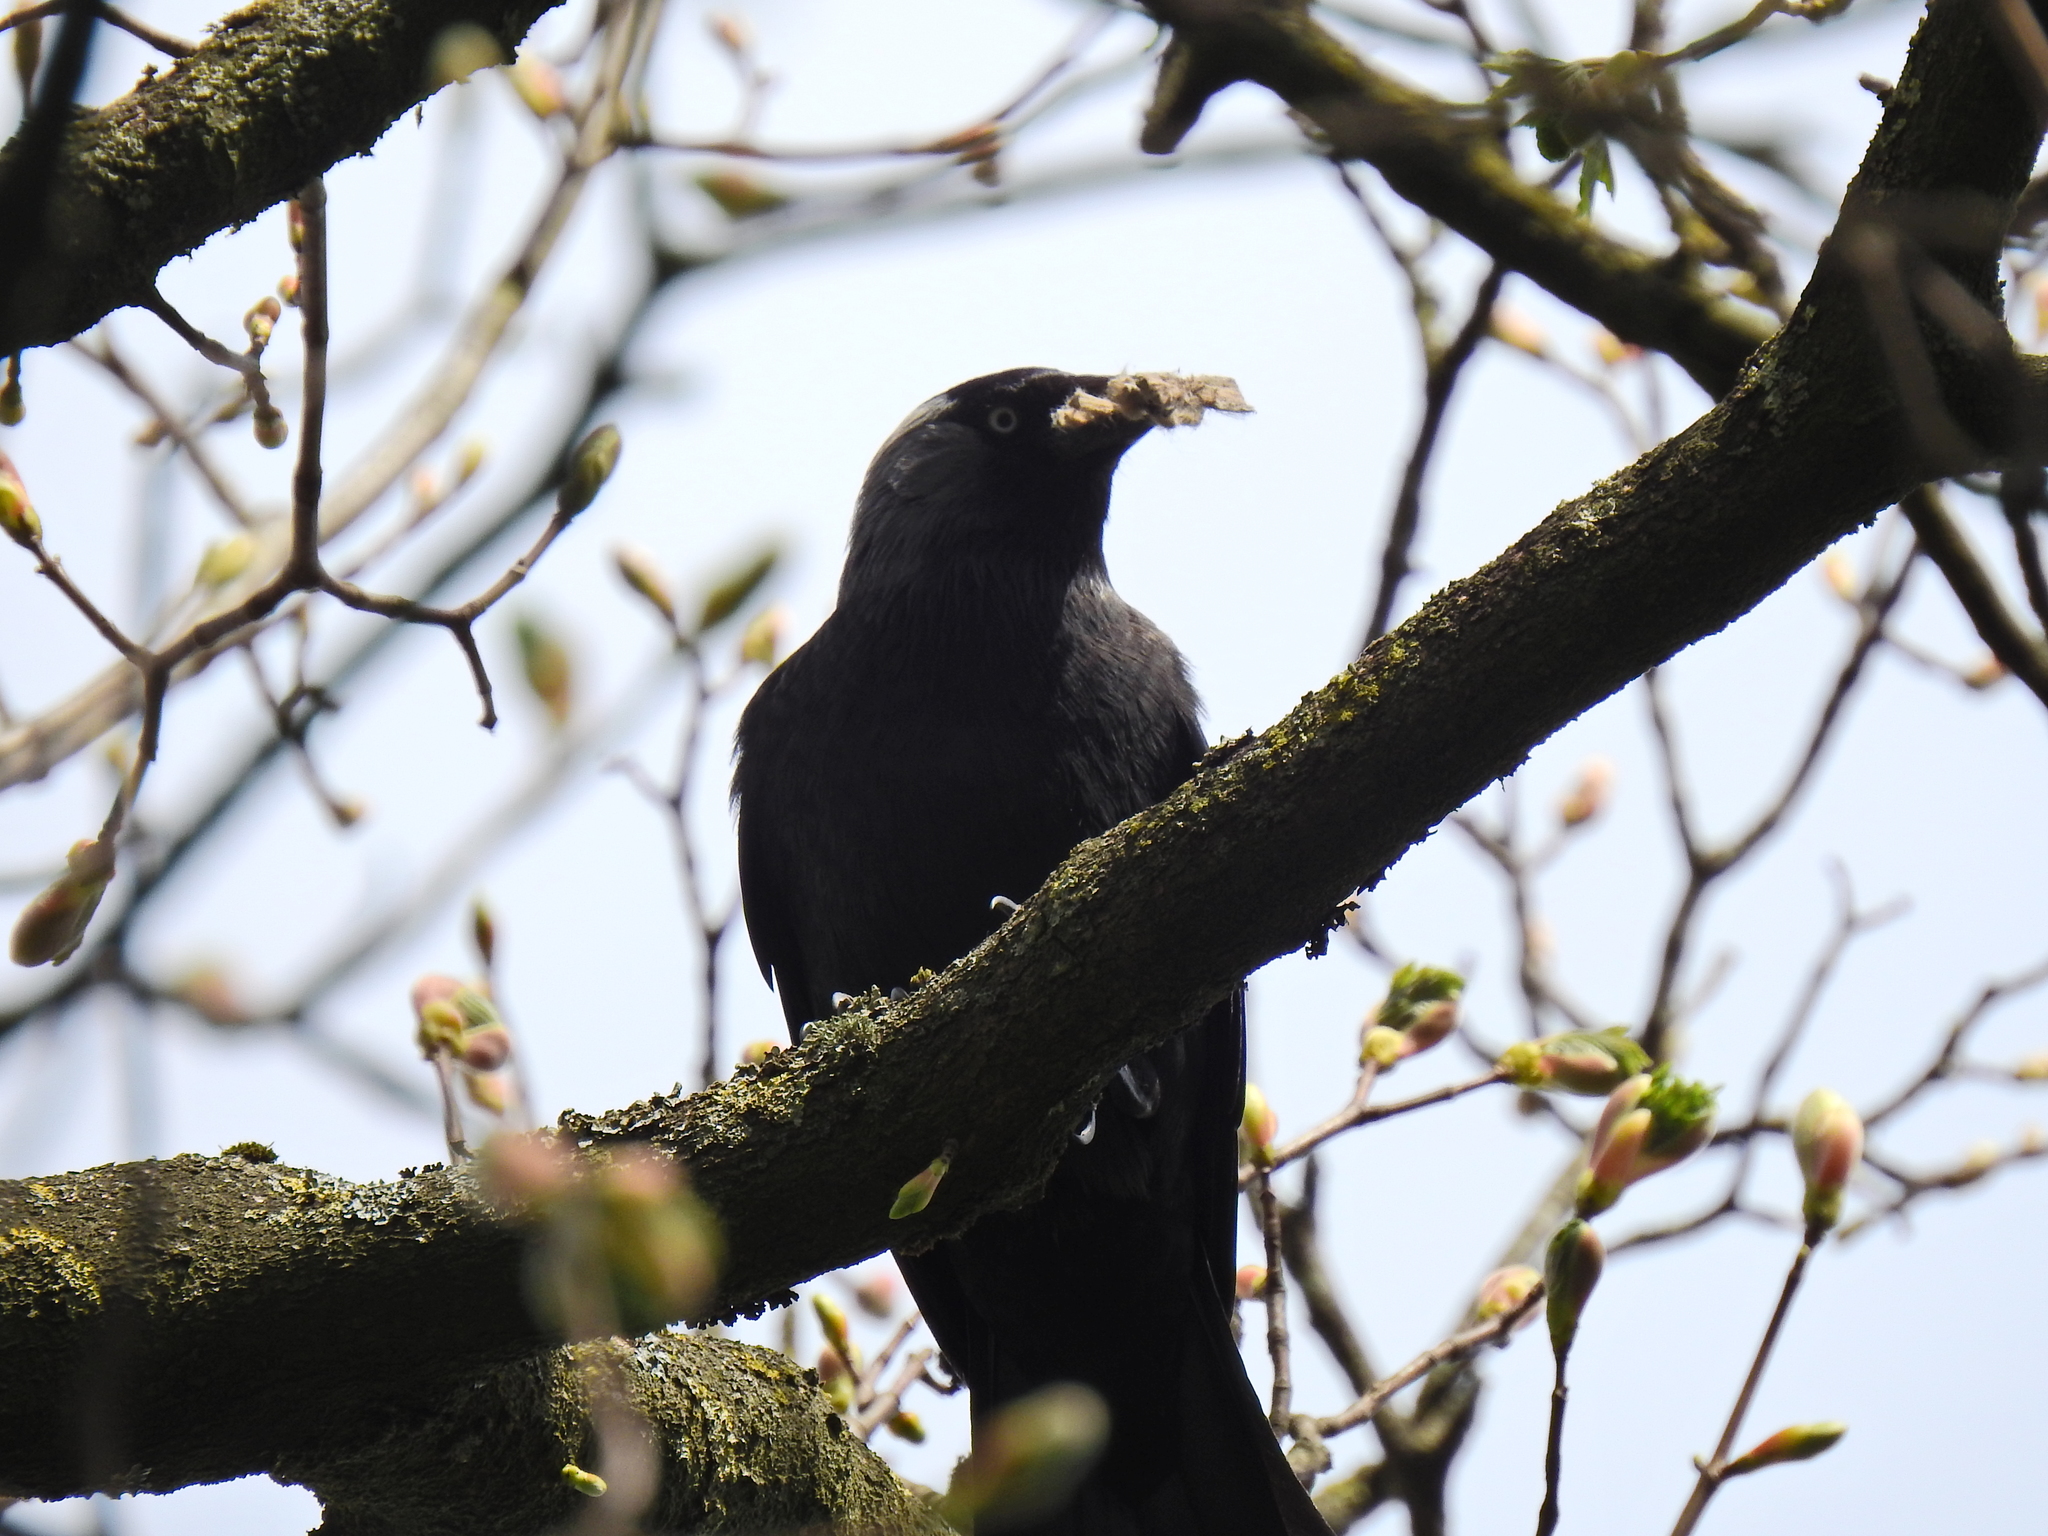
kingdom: Animalia
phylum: Chordata
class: Aves
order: Passeriformes
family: Corvidae
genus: Coloeus
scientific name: Coloeus monedula
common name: Western jackdaw
